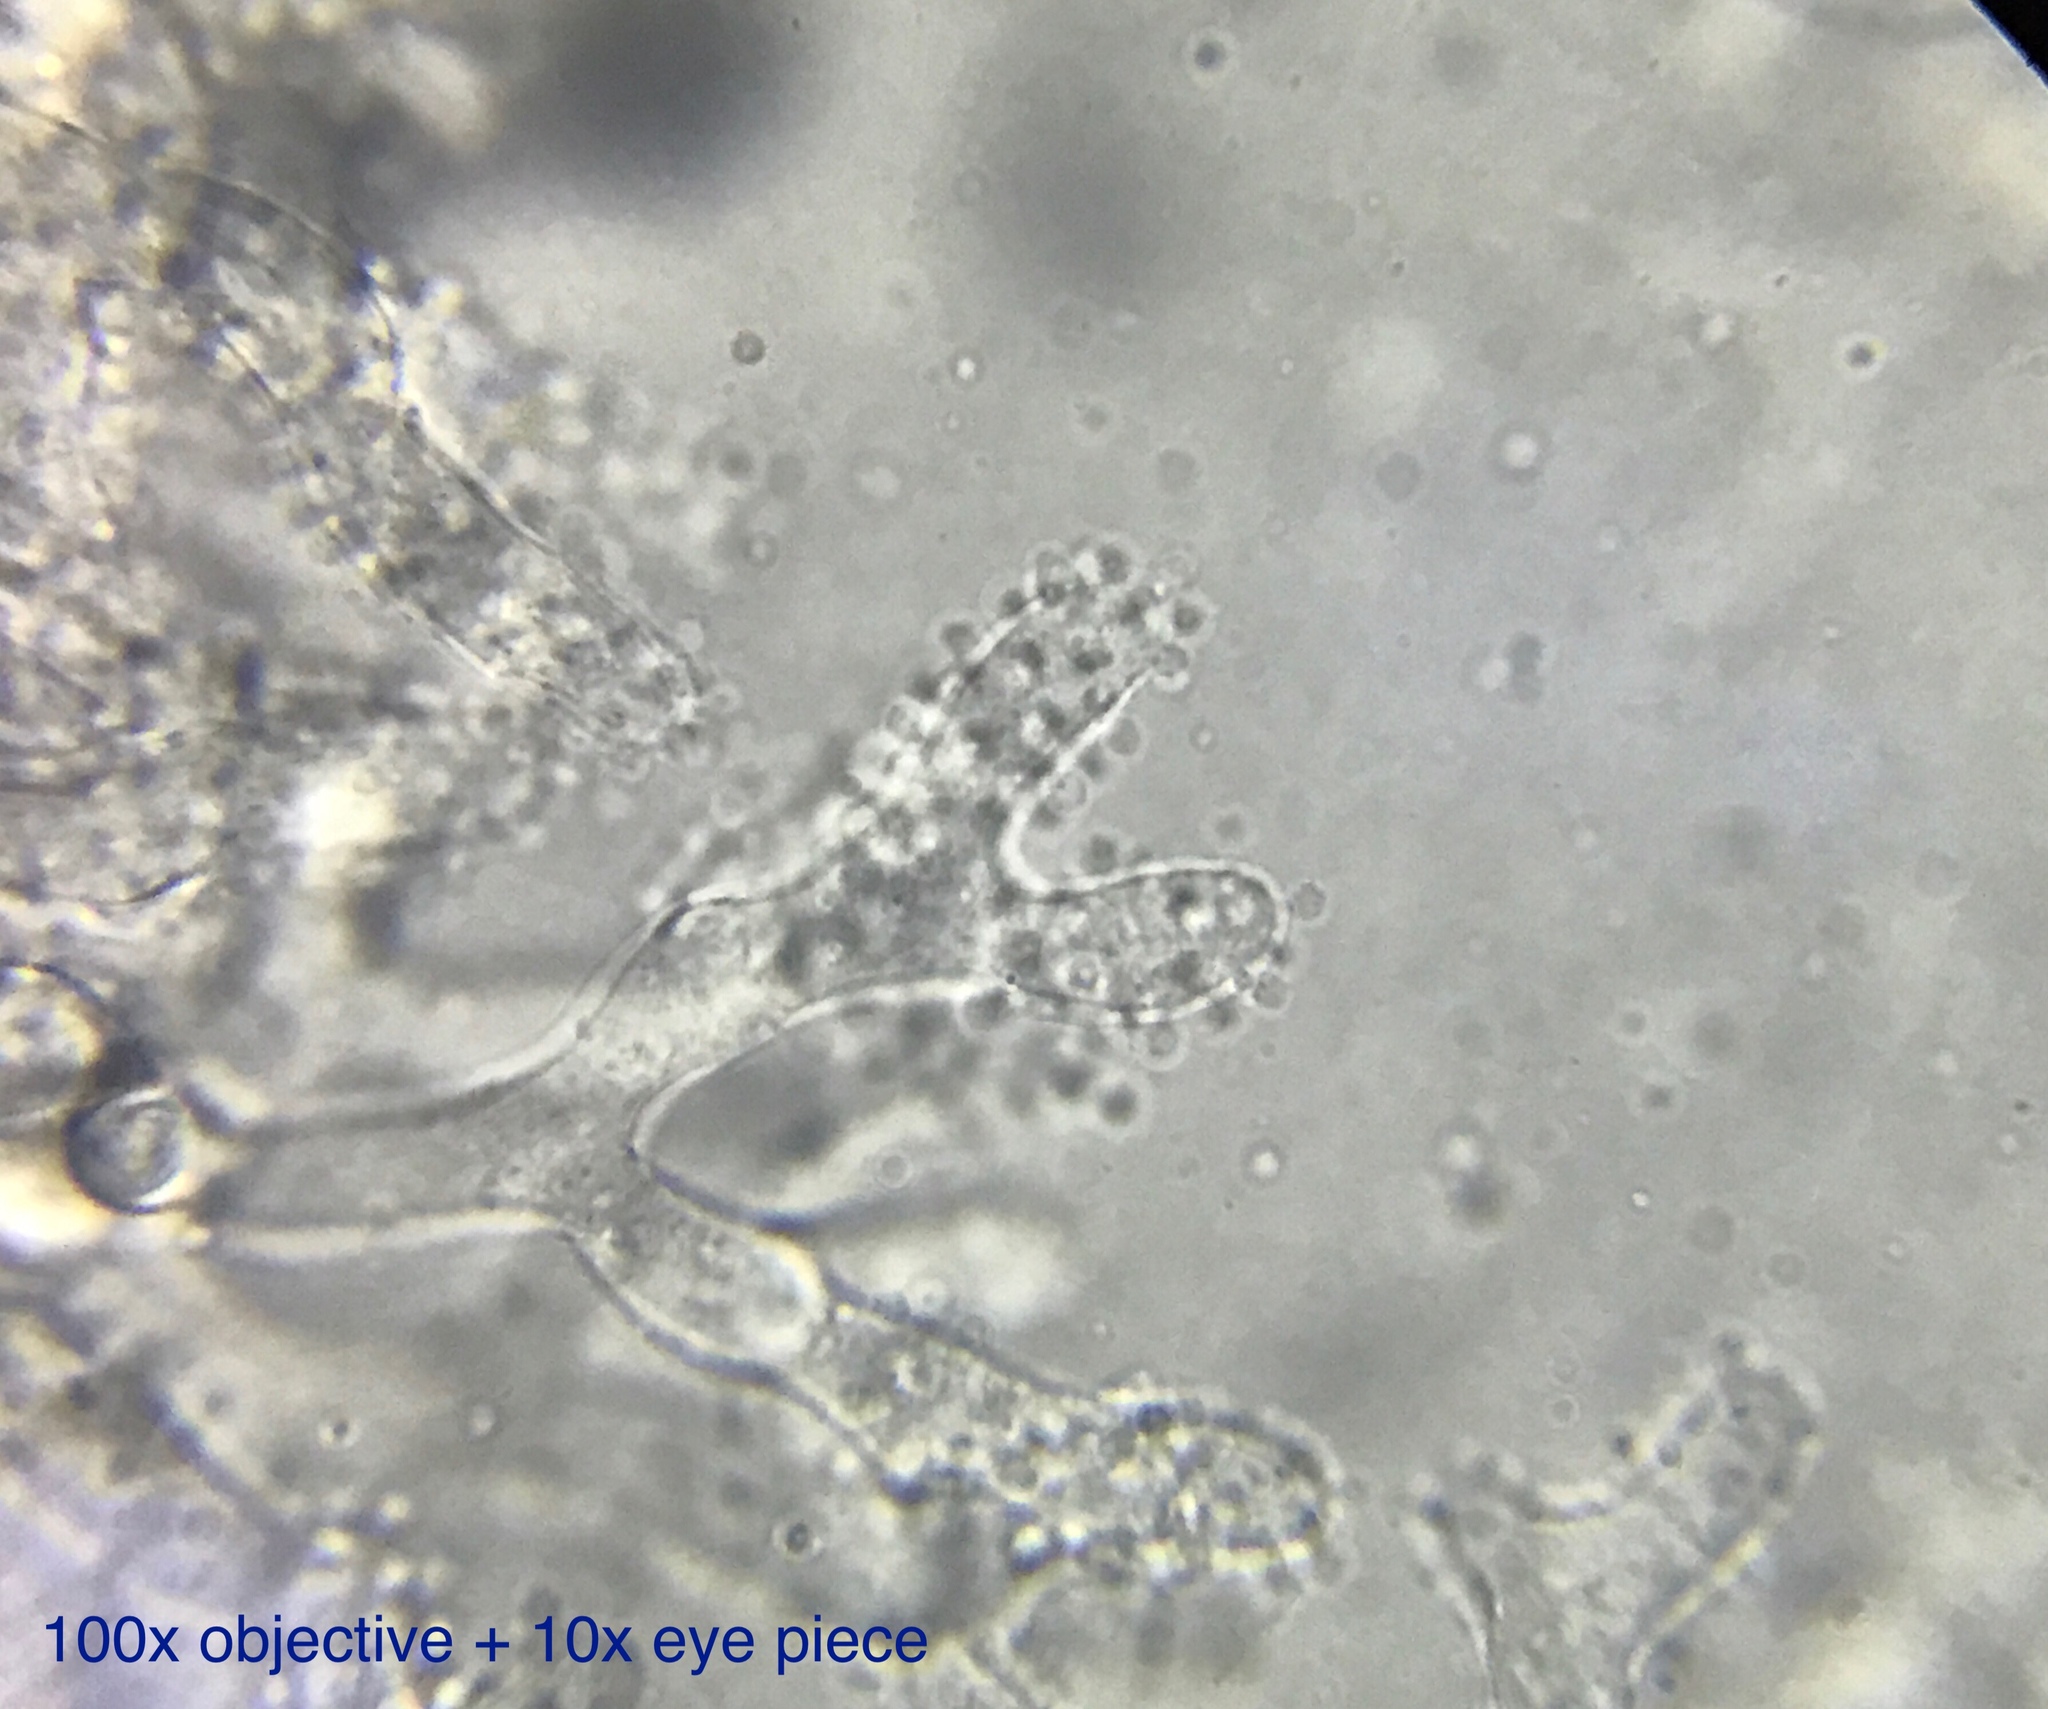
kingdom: Fungi
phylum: Ascomycota
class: Pezizomycetes
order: Pezizales
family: Pezizaceae
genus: Chromelosporium
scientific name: Chromelosporium fulvum
